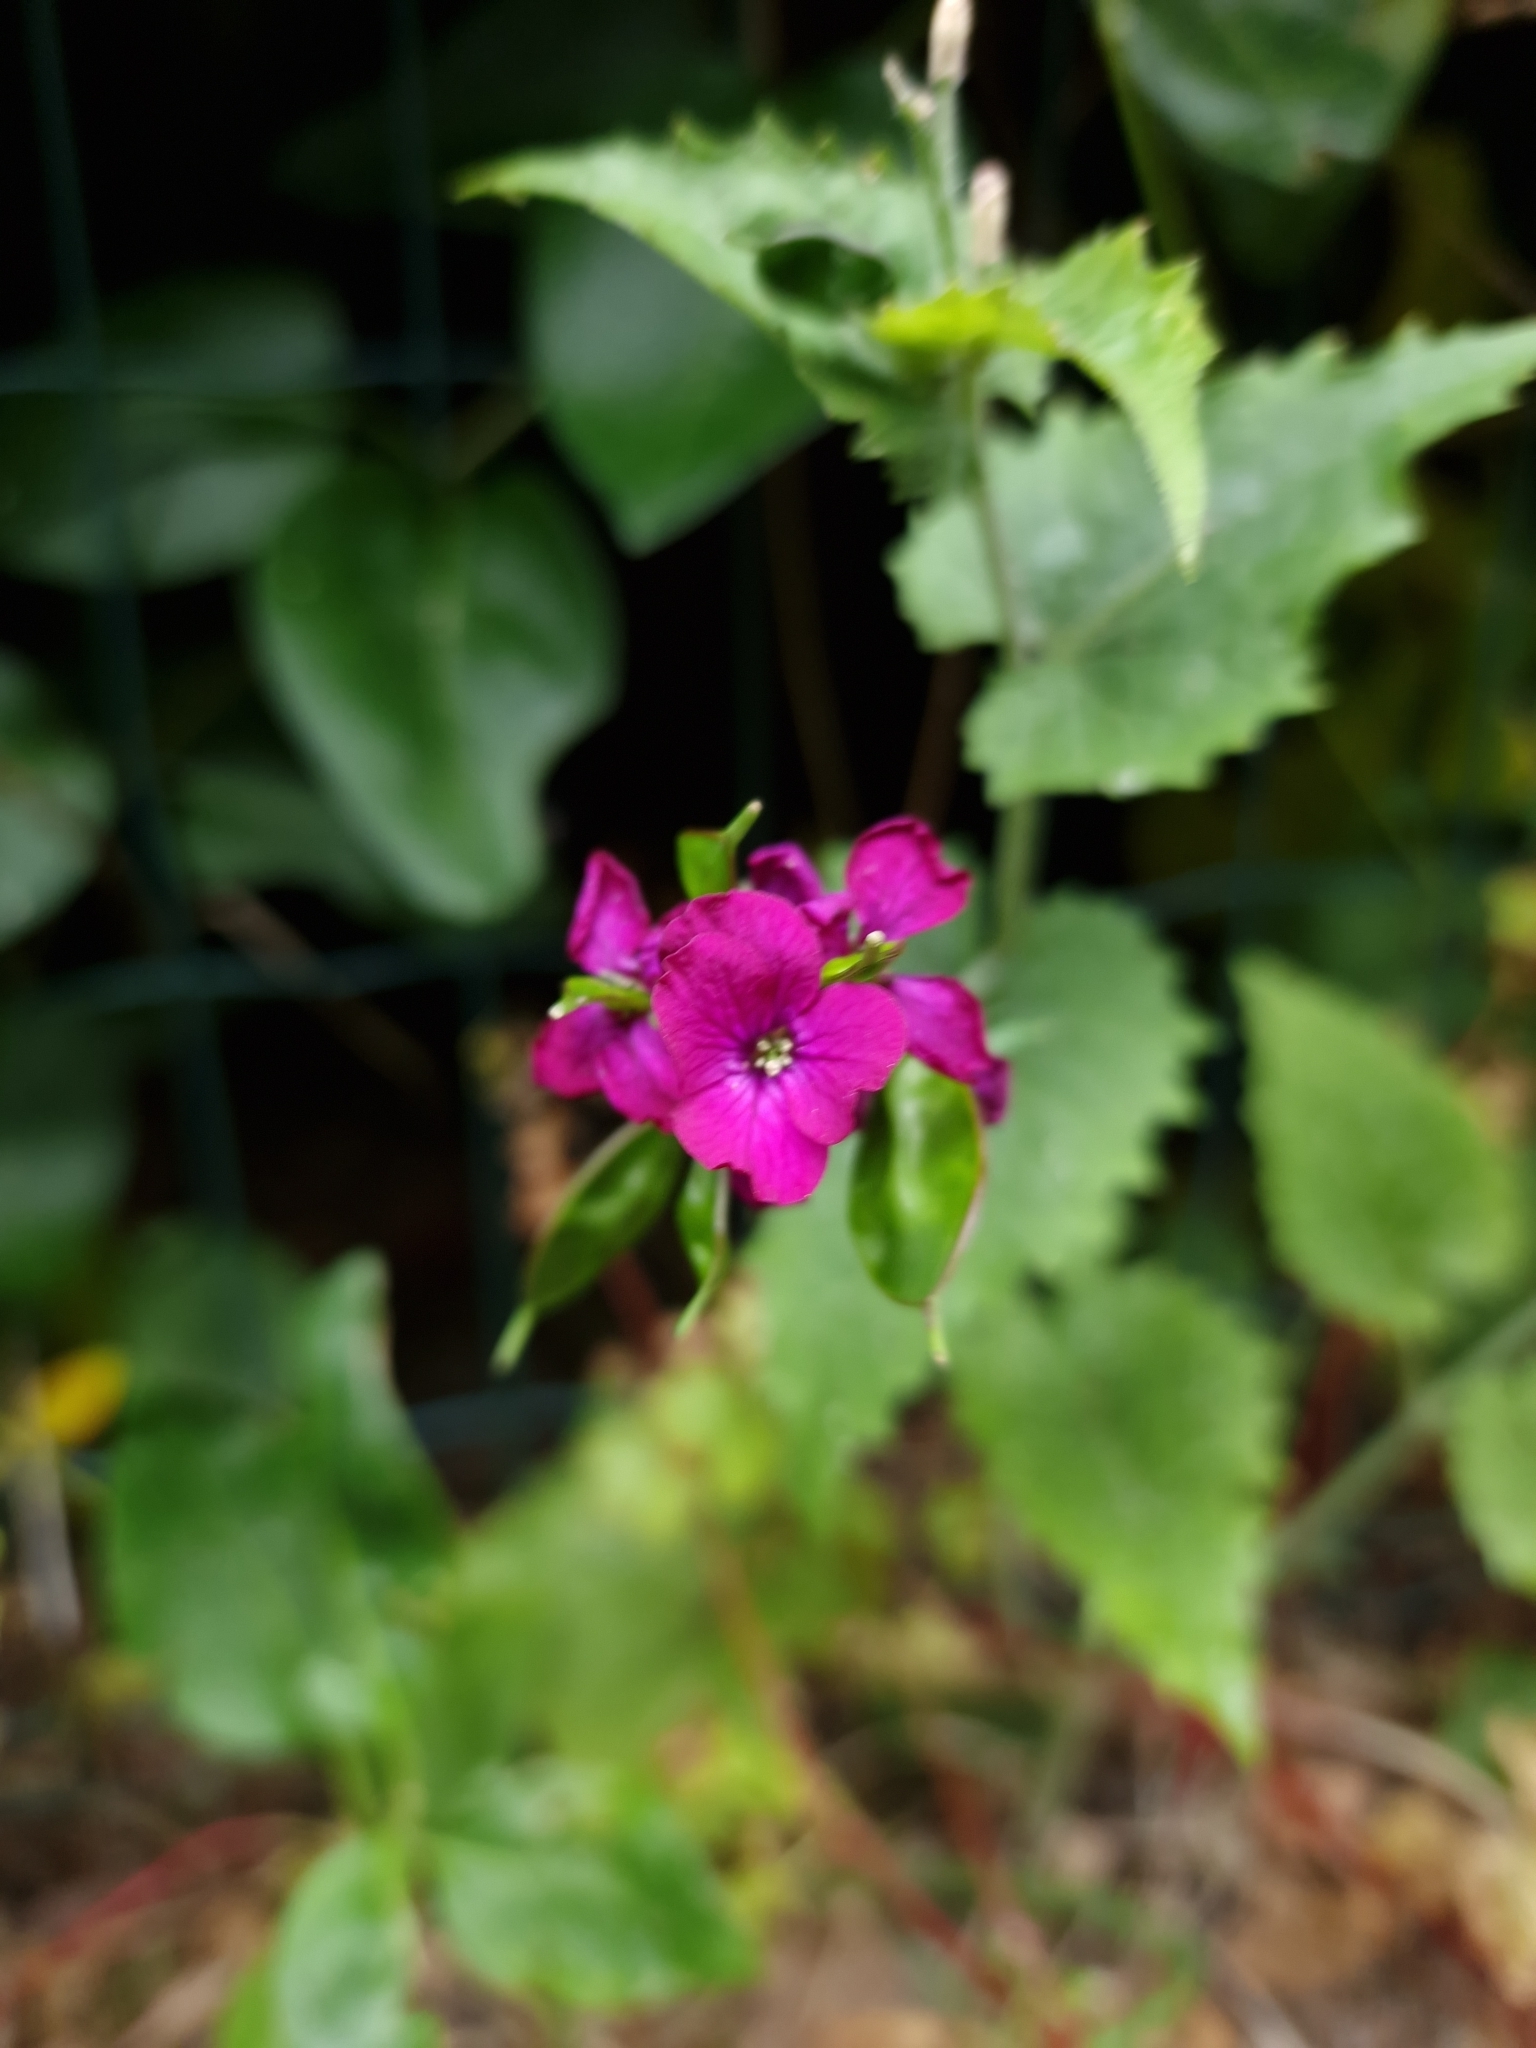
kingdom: Plantae
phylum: Tracheophyta
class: Magnoliopsida
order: Brassicales
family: Brassicaceae
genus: Lunaria
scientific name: Lunaria annua
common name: Honesty
